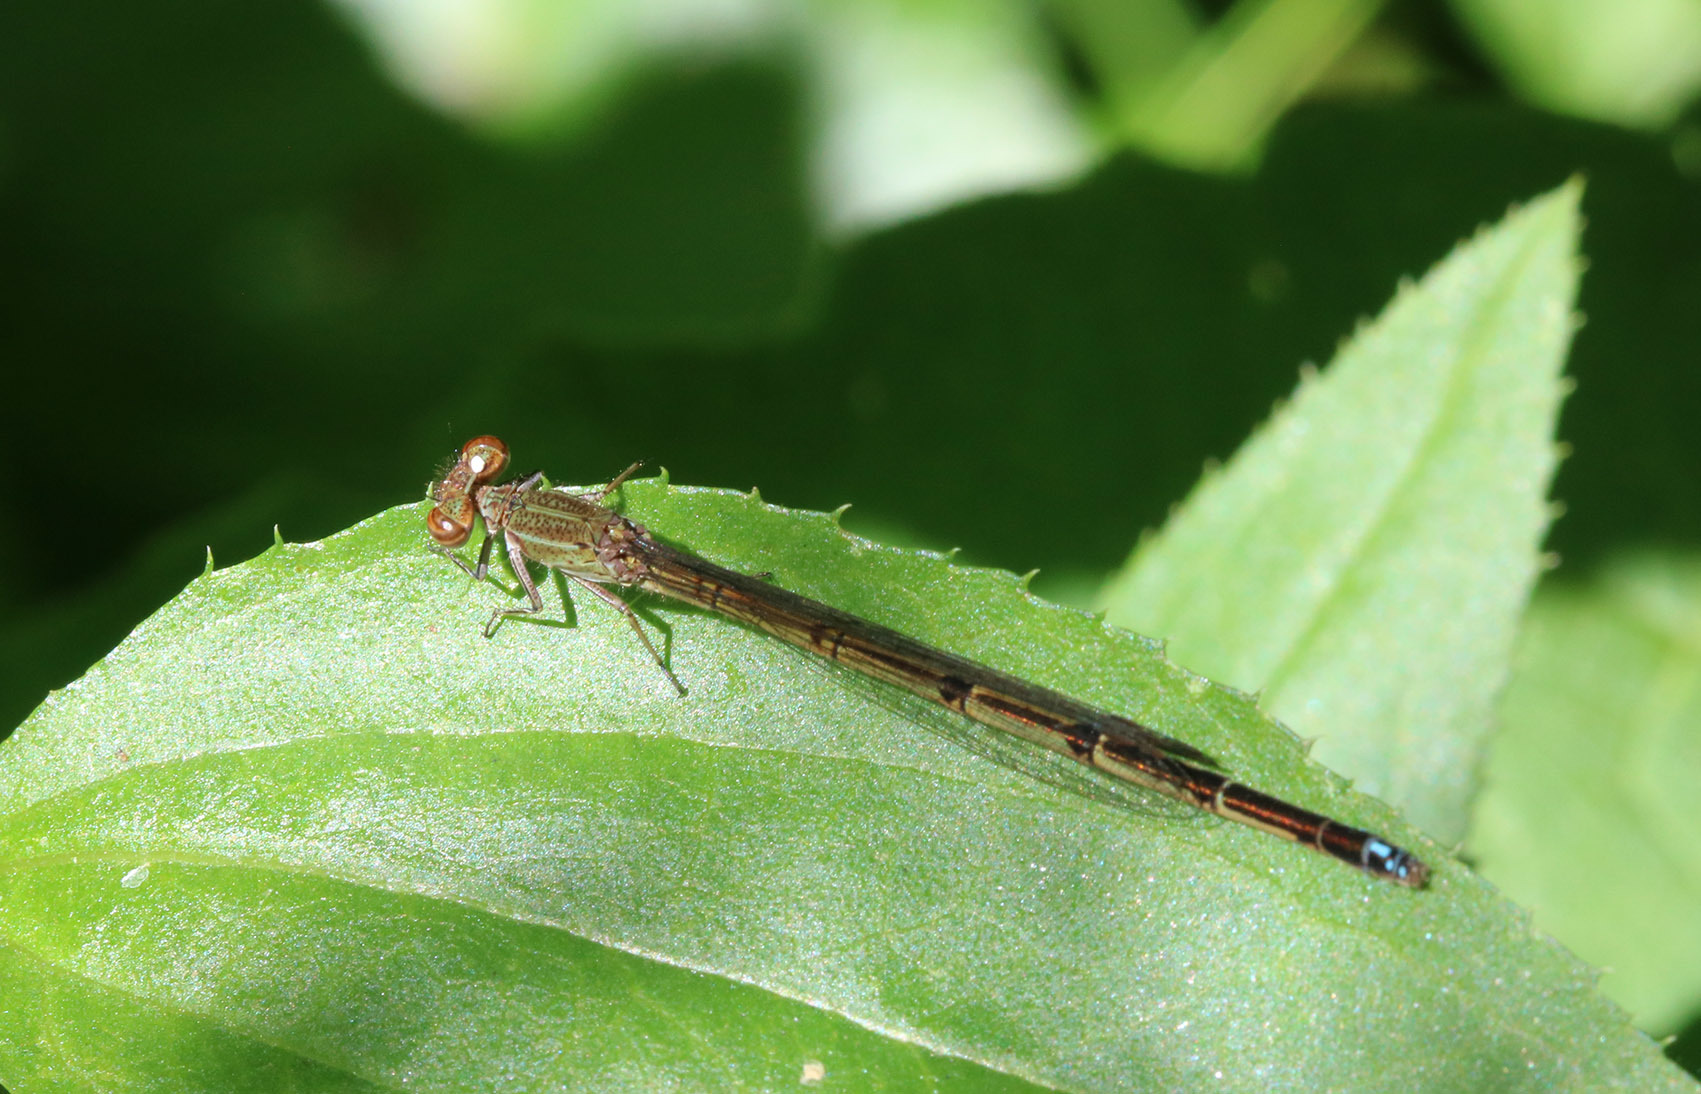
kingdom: Animalia
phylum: Arthropoda
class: Insecta
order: Odonata
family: Coenagrionidae
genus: Oxyagrion
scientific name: Oxyagrion terminale
